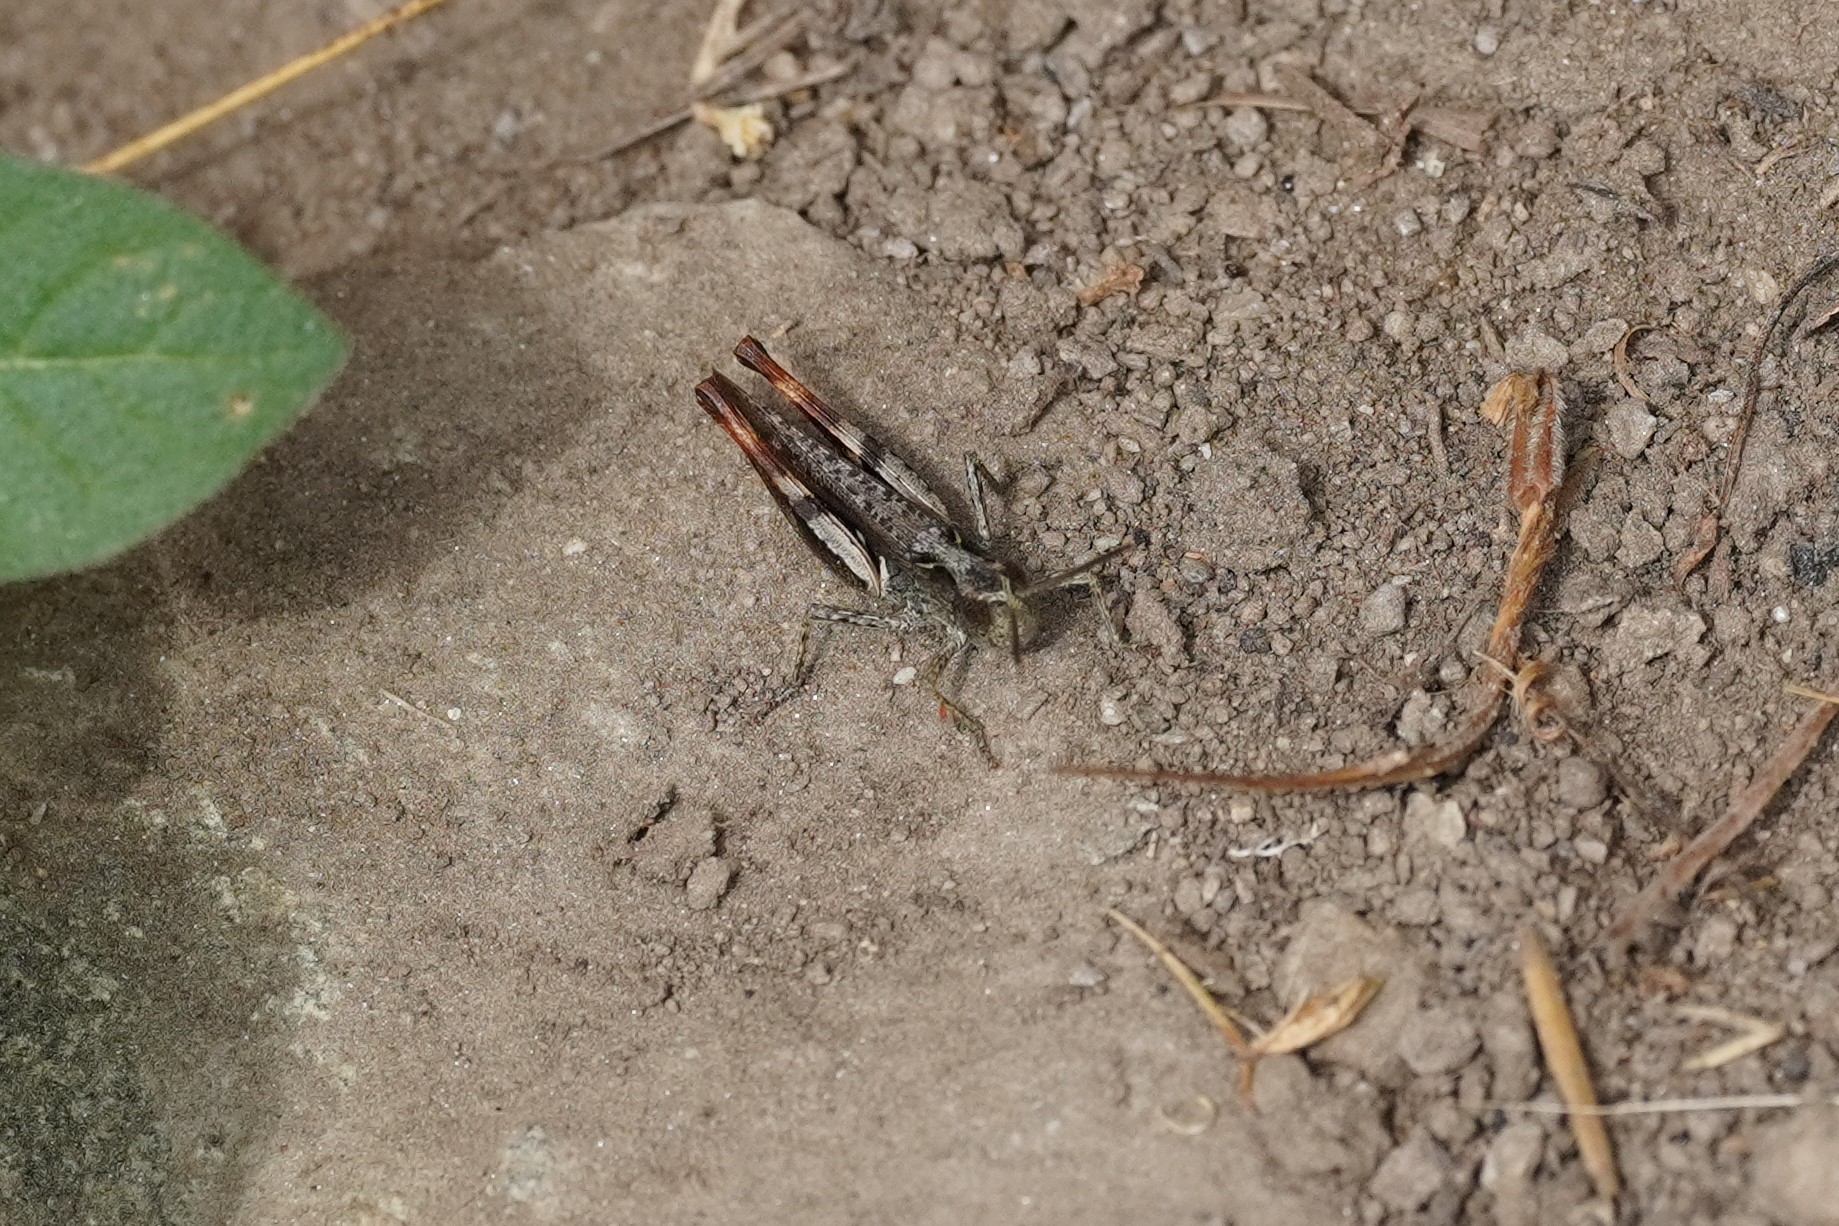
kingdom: Animalia
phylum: Arthropoda
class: Insecta
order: Orthoptera
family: Acrididae
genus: Chorthippus
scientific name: Chorthippus vagans
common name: Heath grasshopper
